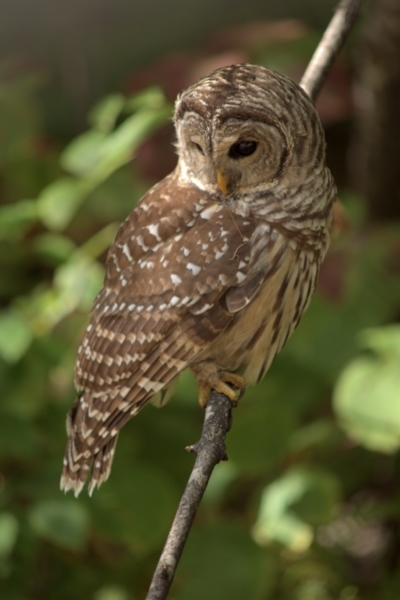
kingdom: Animalia
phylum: Chordata
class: Aves
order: Strigiformes
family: Strigidae
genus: Strix
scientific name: Strix varia
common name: Barred owl
